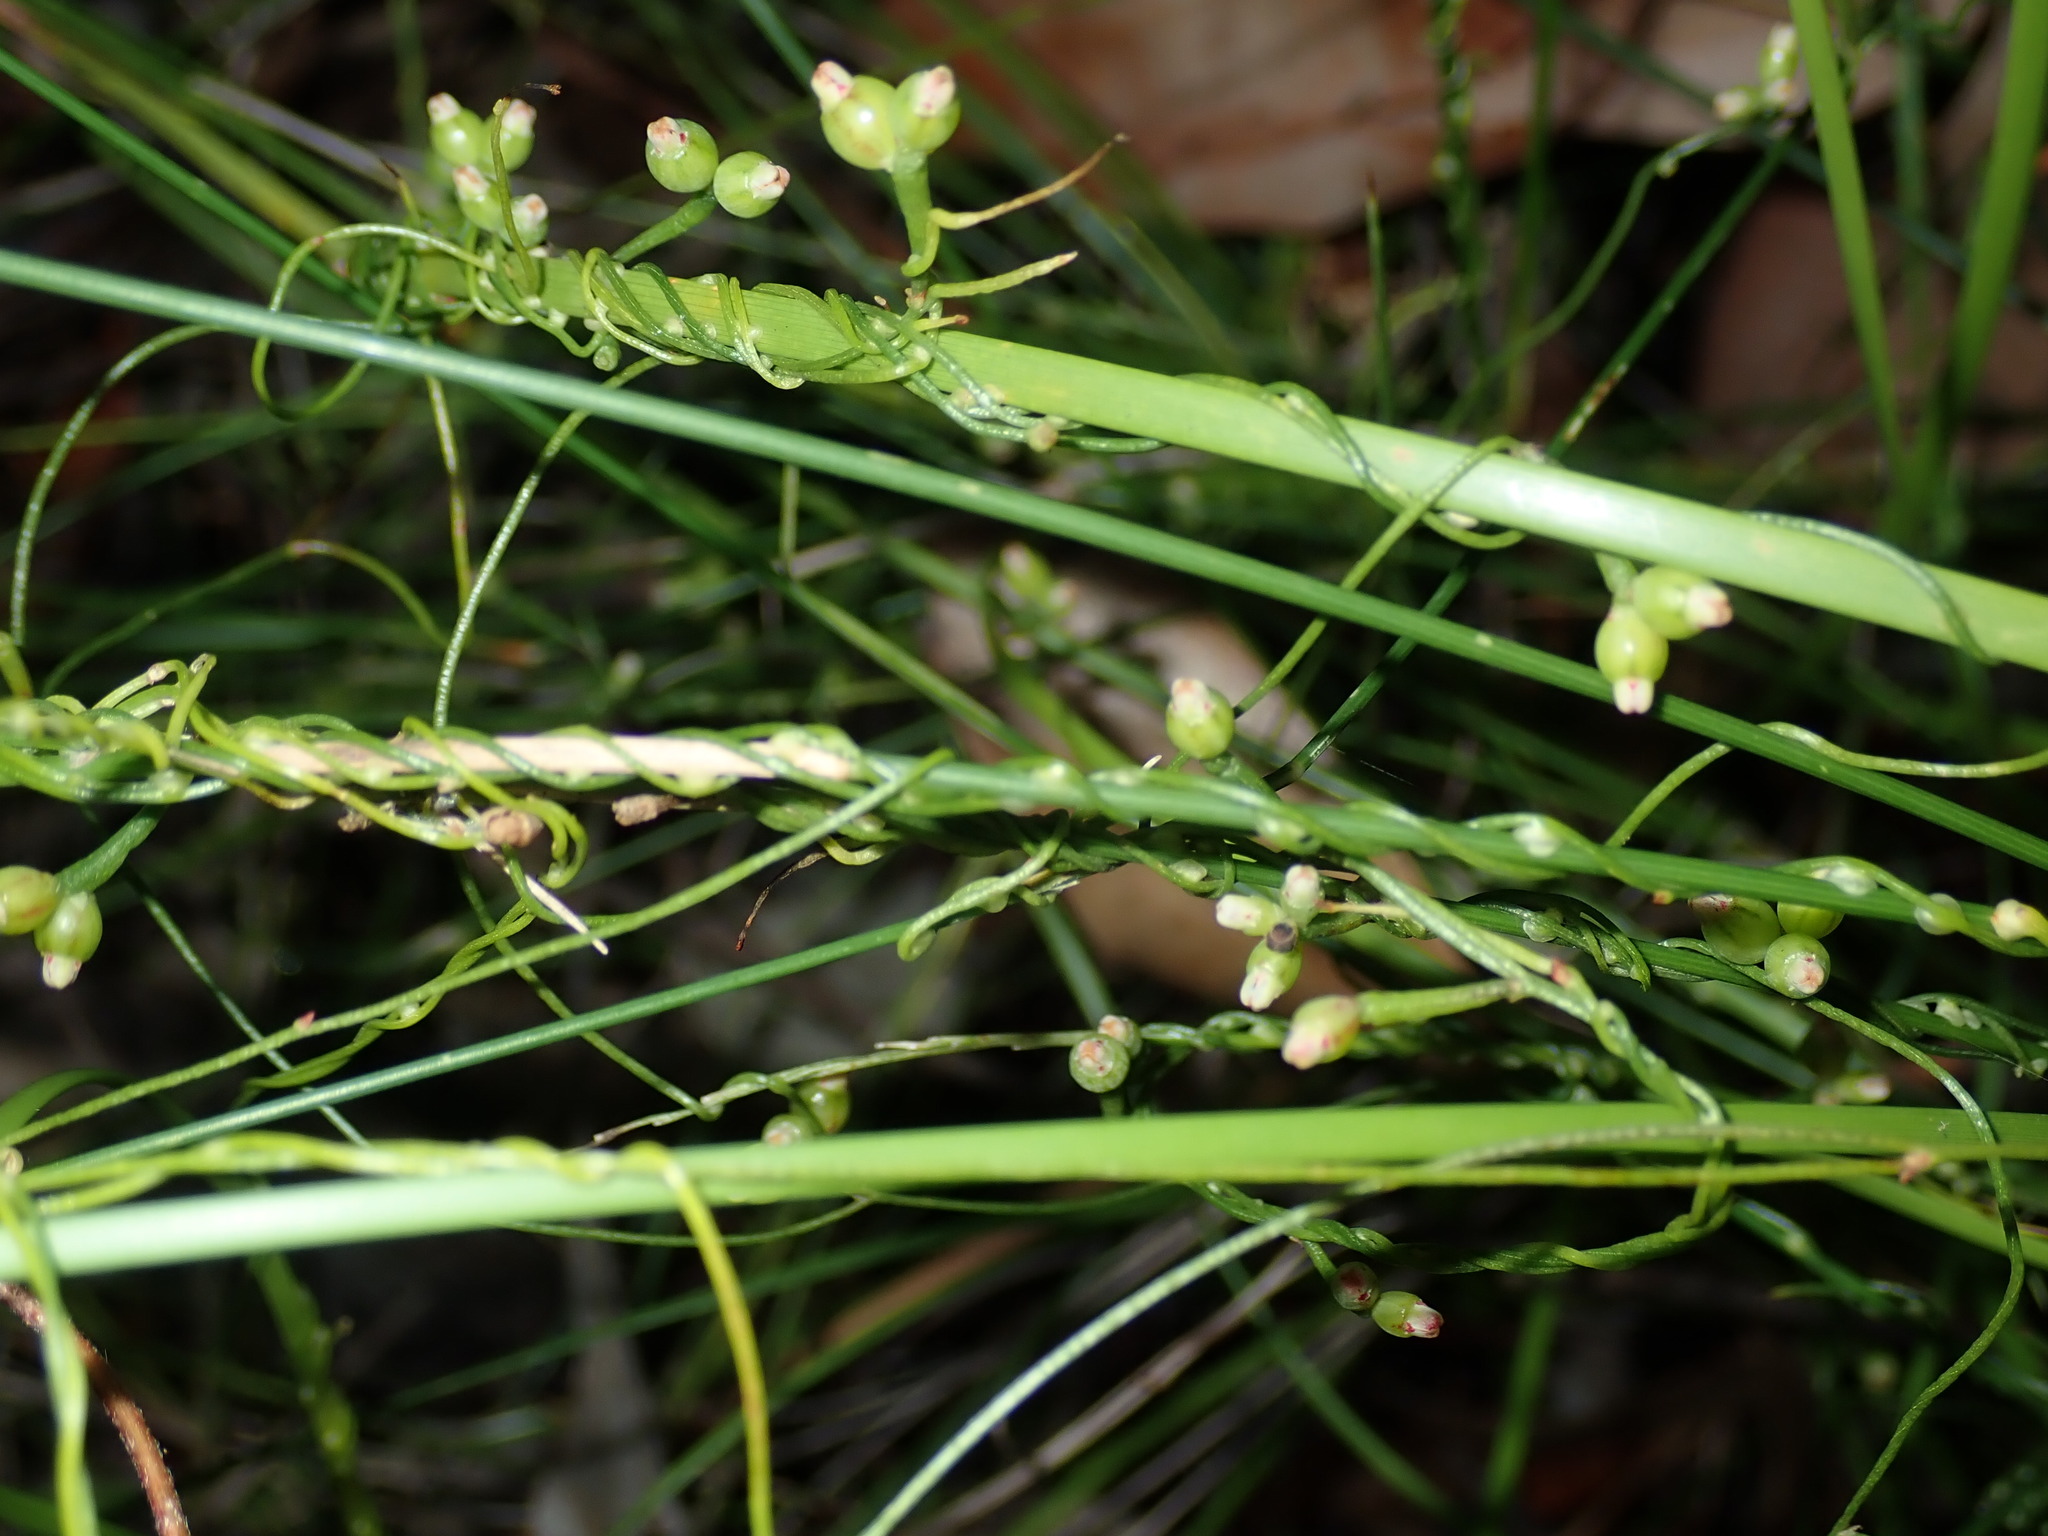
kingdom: Plantae
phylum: Tracheophyta
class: Magnoliopsida
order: Laurales
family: Lauraceae
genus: Cassytha
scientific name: Cassytha glabella
